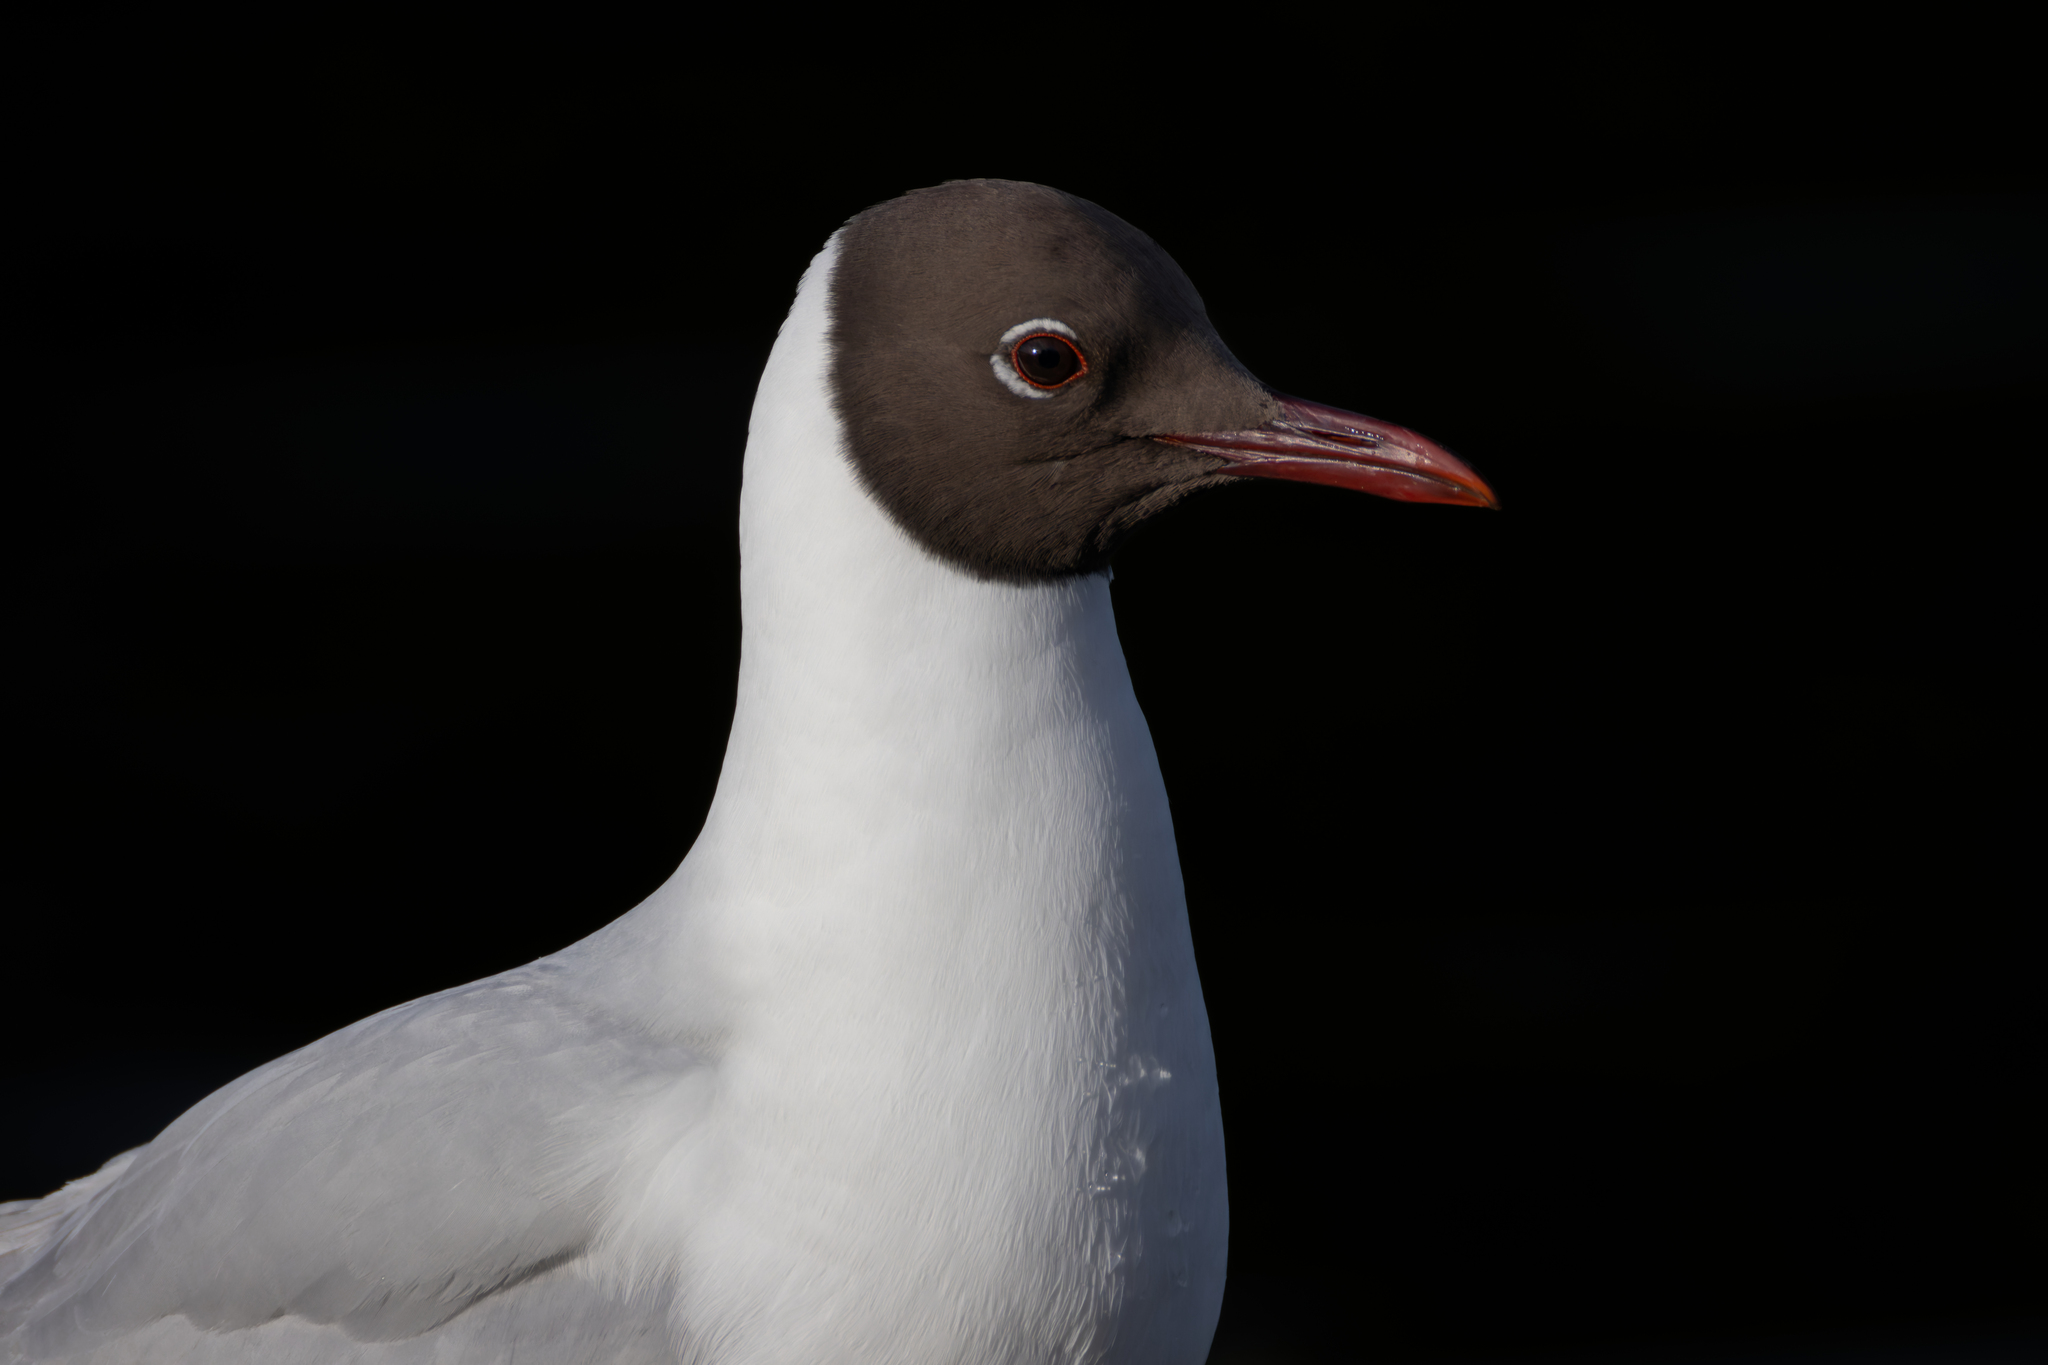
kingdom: Animalia
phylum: Chordata
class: Aves
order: Charadriiformes
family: Laridae
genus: Chroicocephalus
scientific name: Chroicocephalus ridibundus
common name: Black-headed gull
